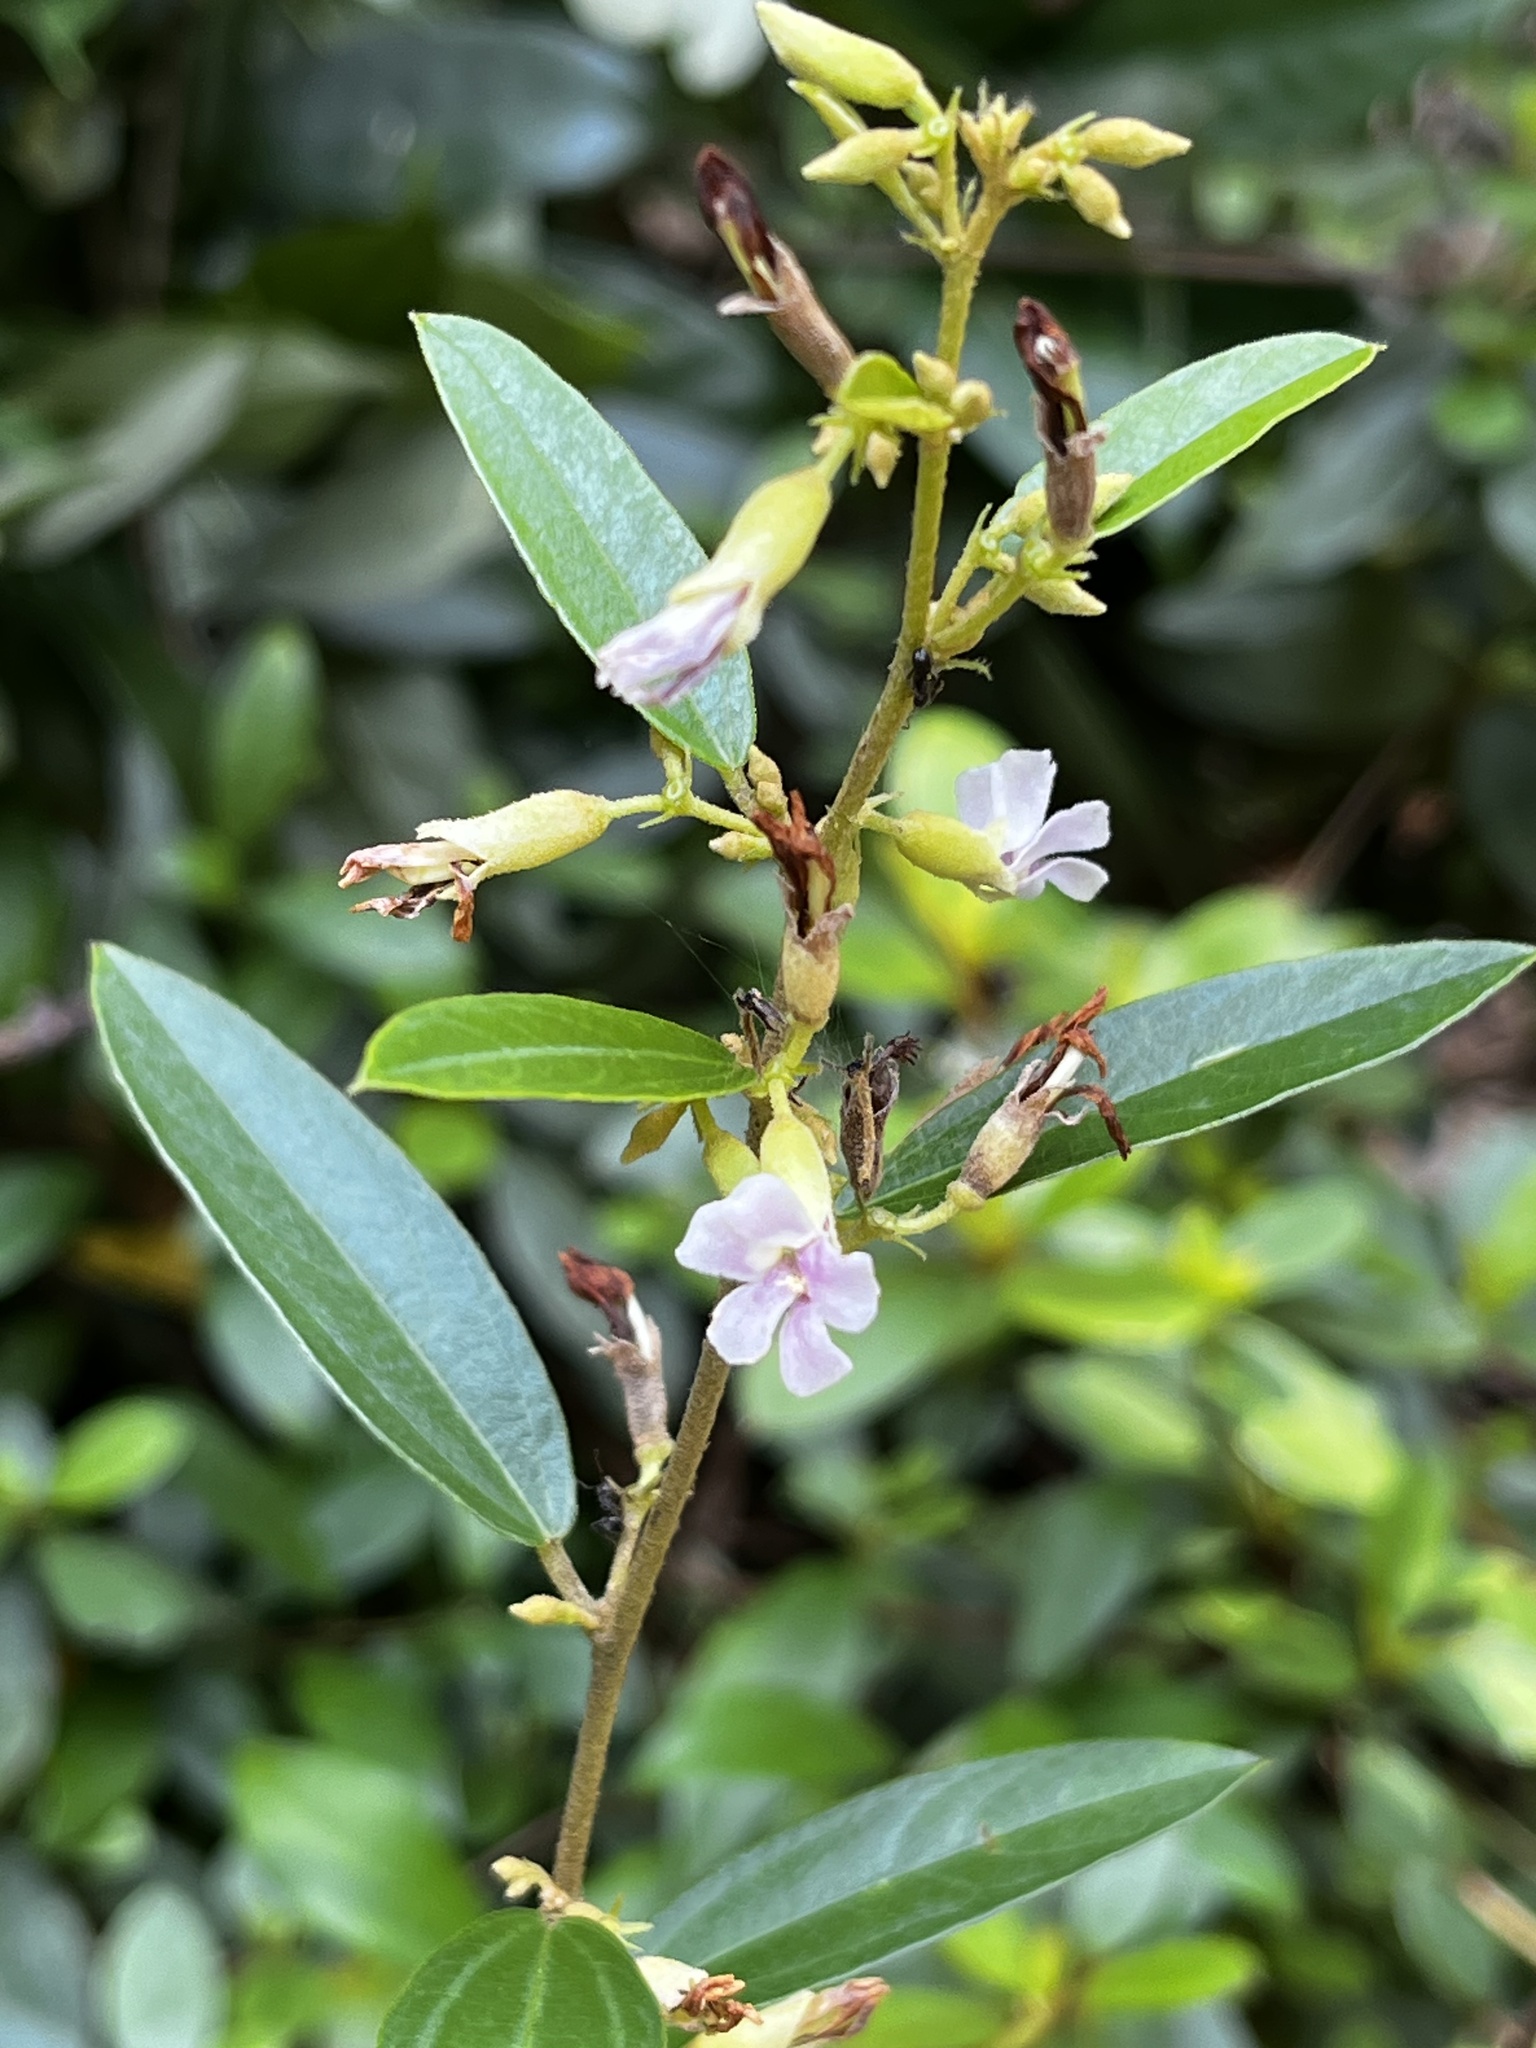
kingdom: Plantae
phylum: Tracheophyta
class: Magnoliopsida
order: Malvales
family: Malvaceae
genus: Helicteres
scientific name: Helicteres angustifolia
